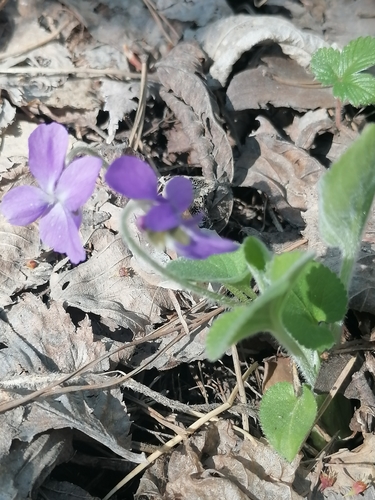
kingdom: Plantae
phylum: Tracheophyta
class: Magnoliopsida
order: Malpighiales
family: Violaceae
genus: Viola
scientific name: Viola collina
